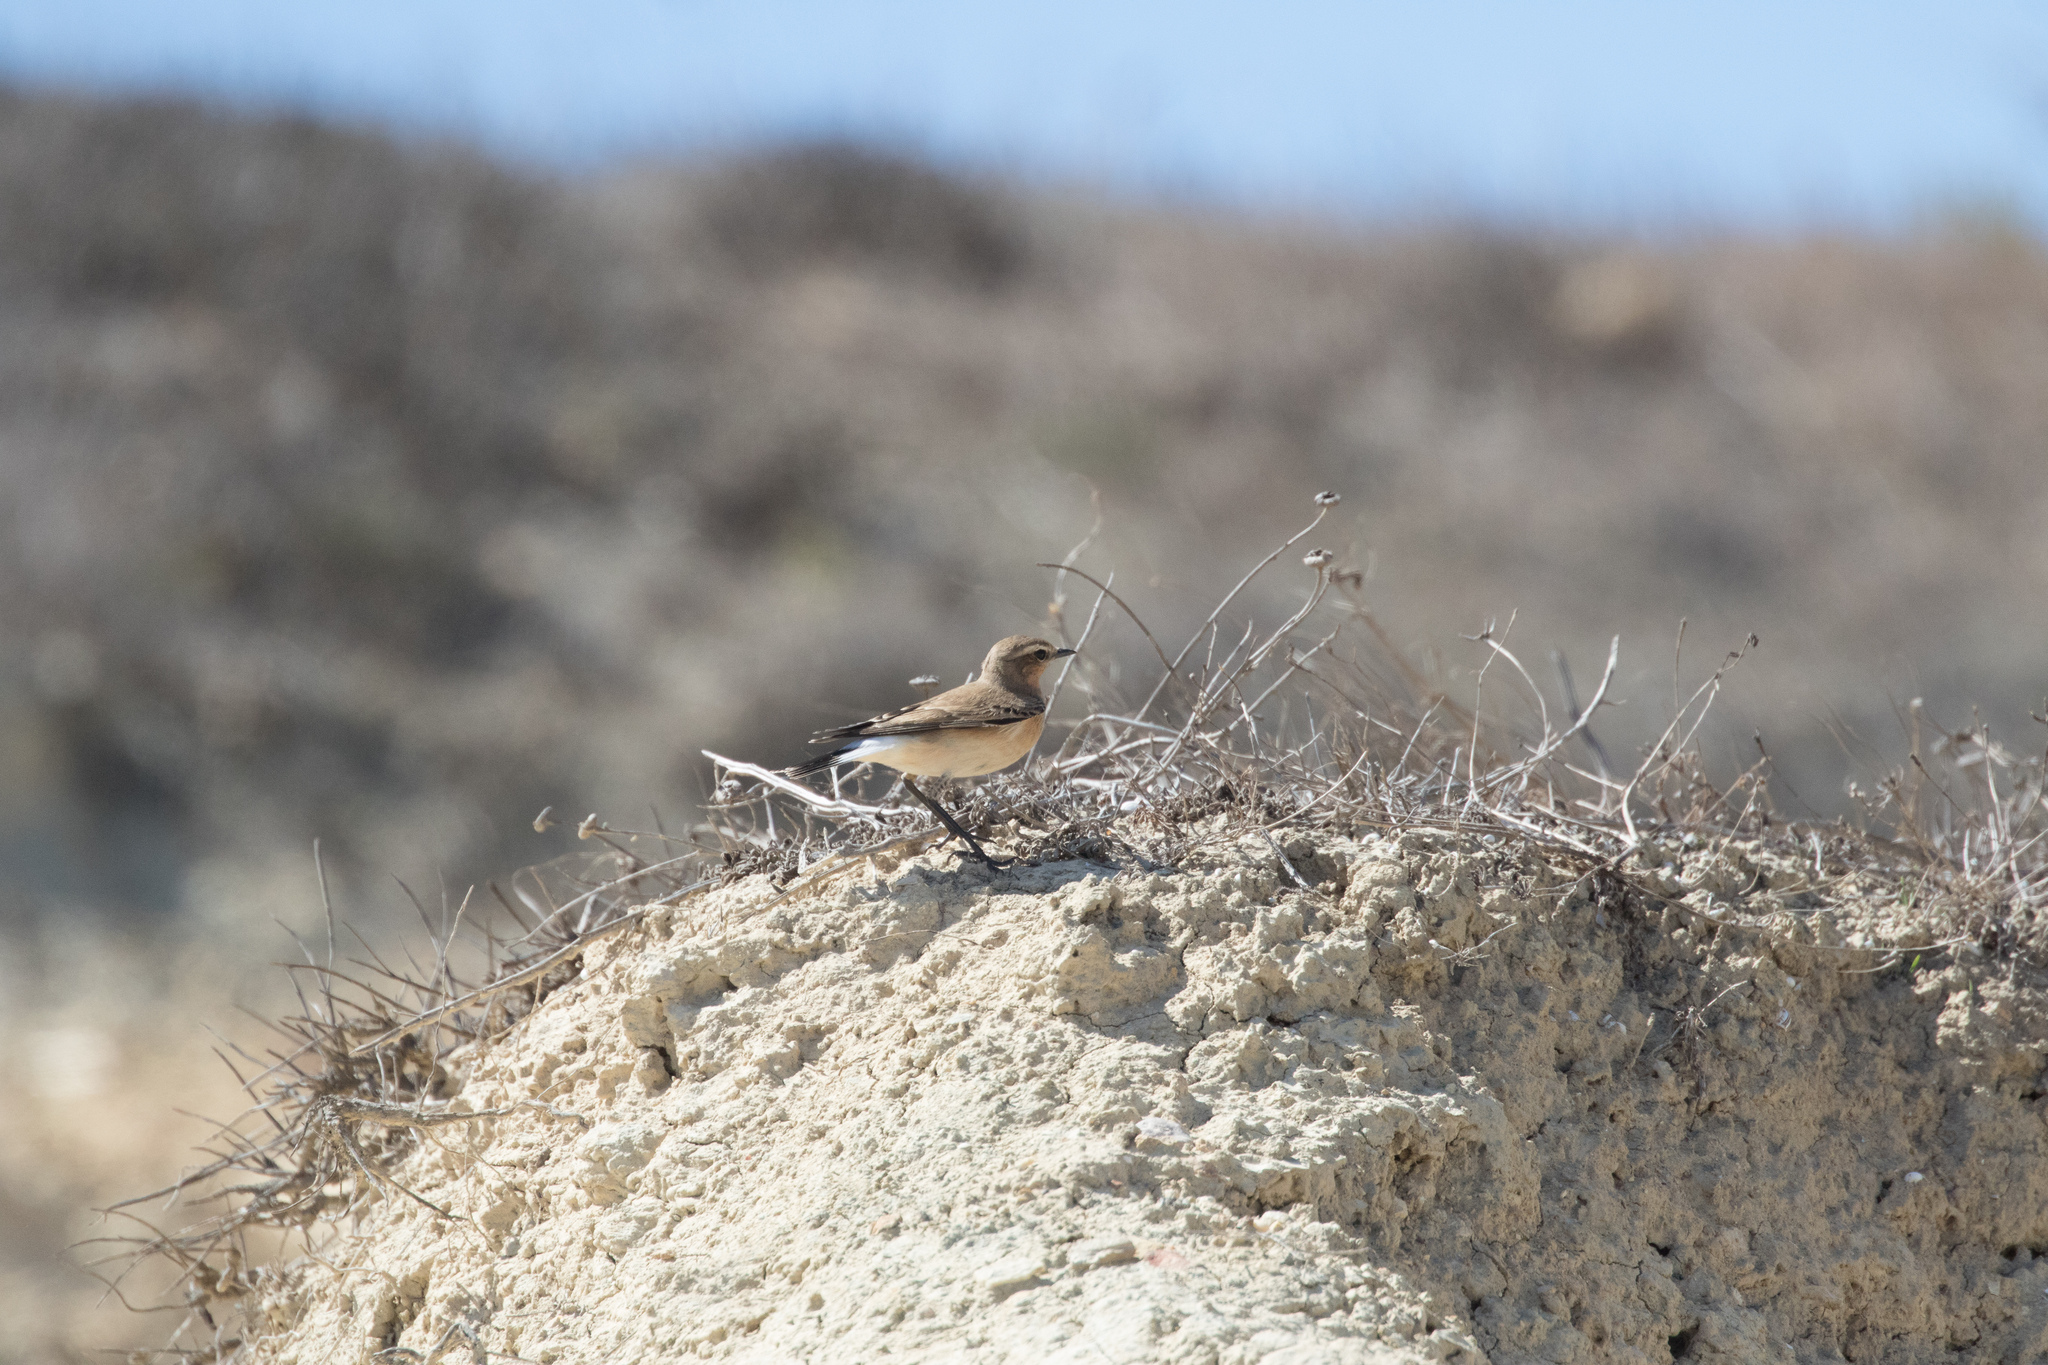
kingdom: Animalia
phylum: Chordata
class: Aves
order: Passeriformes
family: Muscicapidae
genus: Oenanthe
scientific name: Oenanthe oenanthe
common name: Northern wheatear
